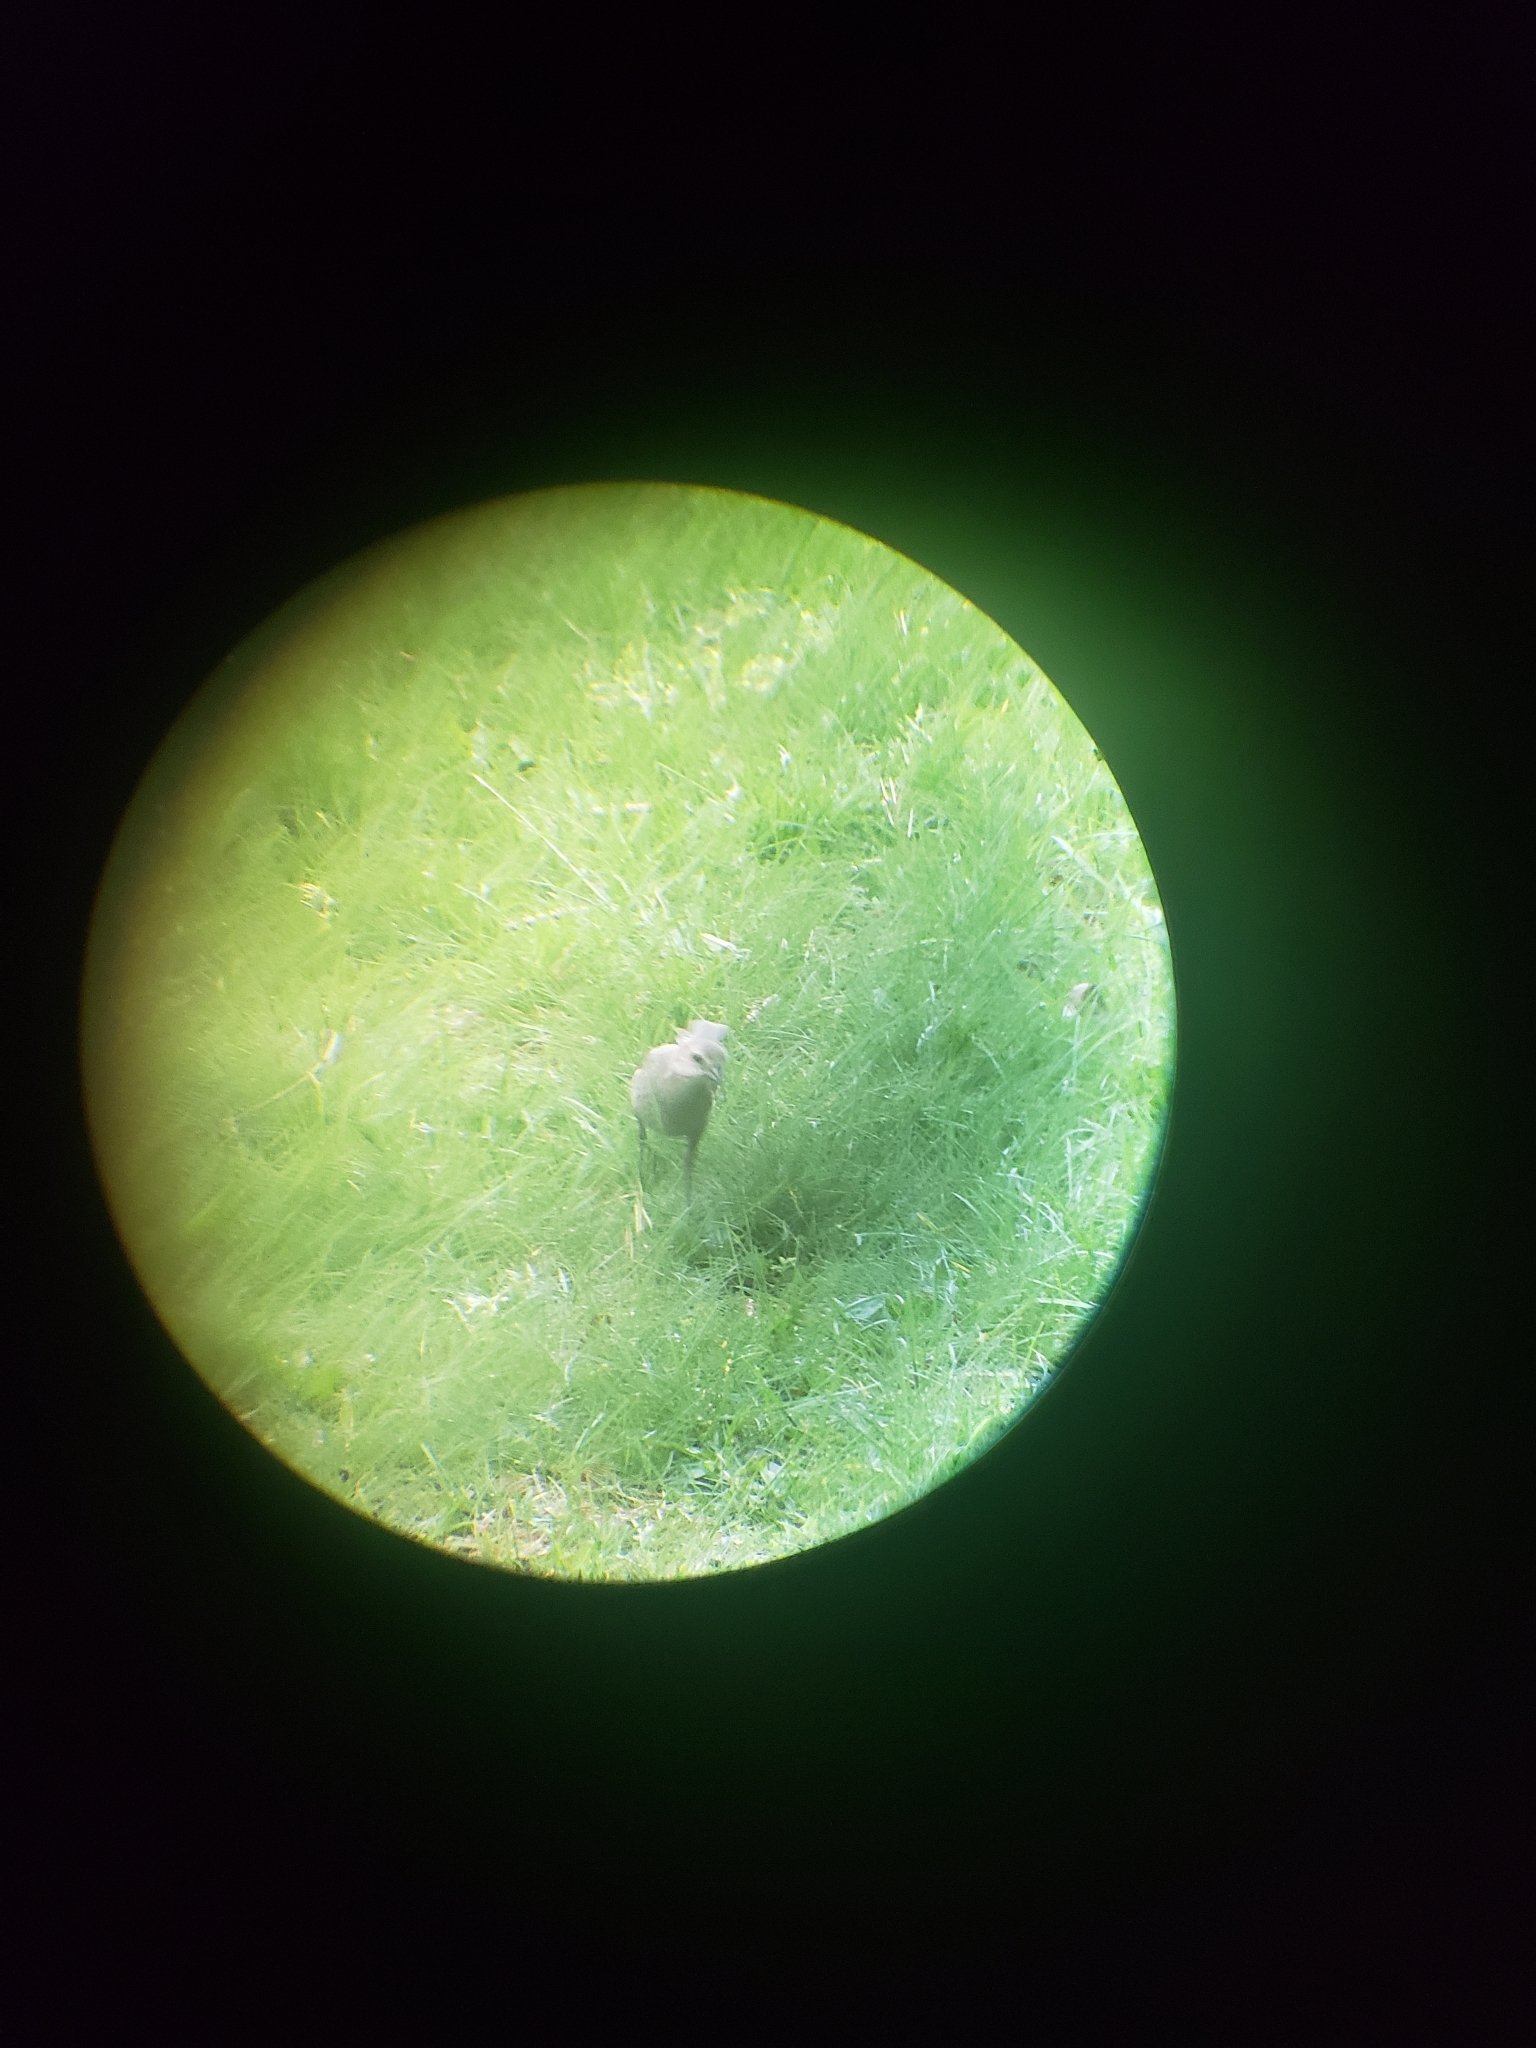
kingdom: Animalia
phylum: Chordata
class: Aves
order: Passeriformes
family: Icteridae
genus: Molothrus
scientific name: Molothrus ater
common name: Brown-headed cowbird
